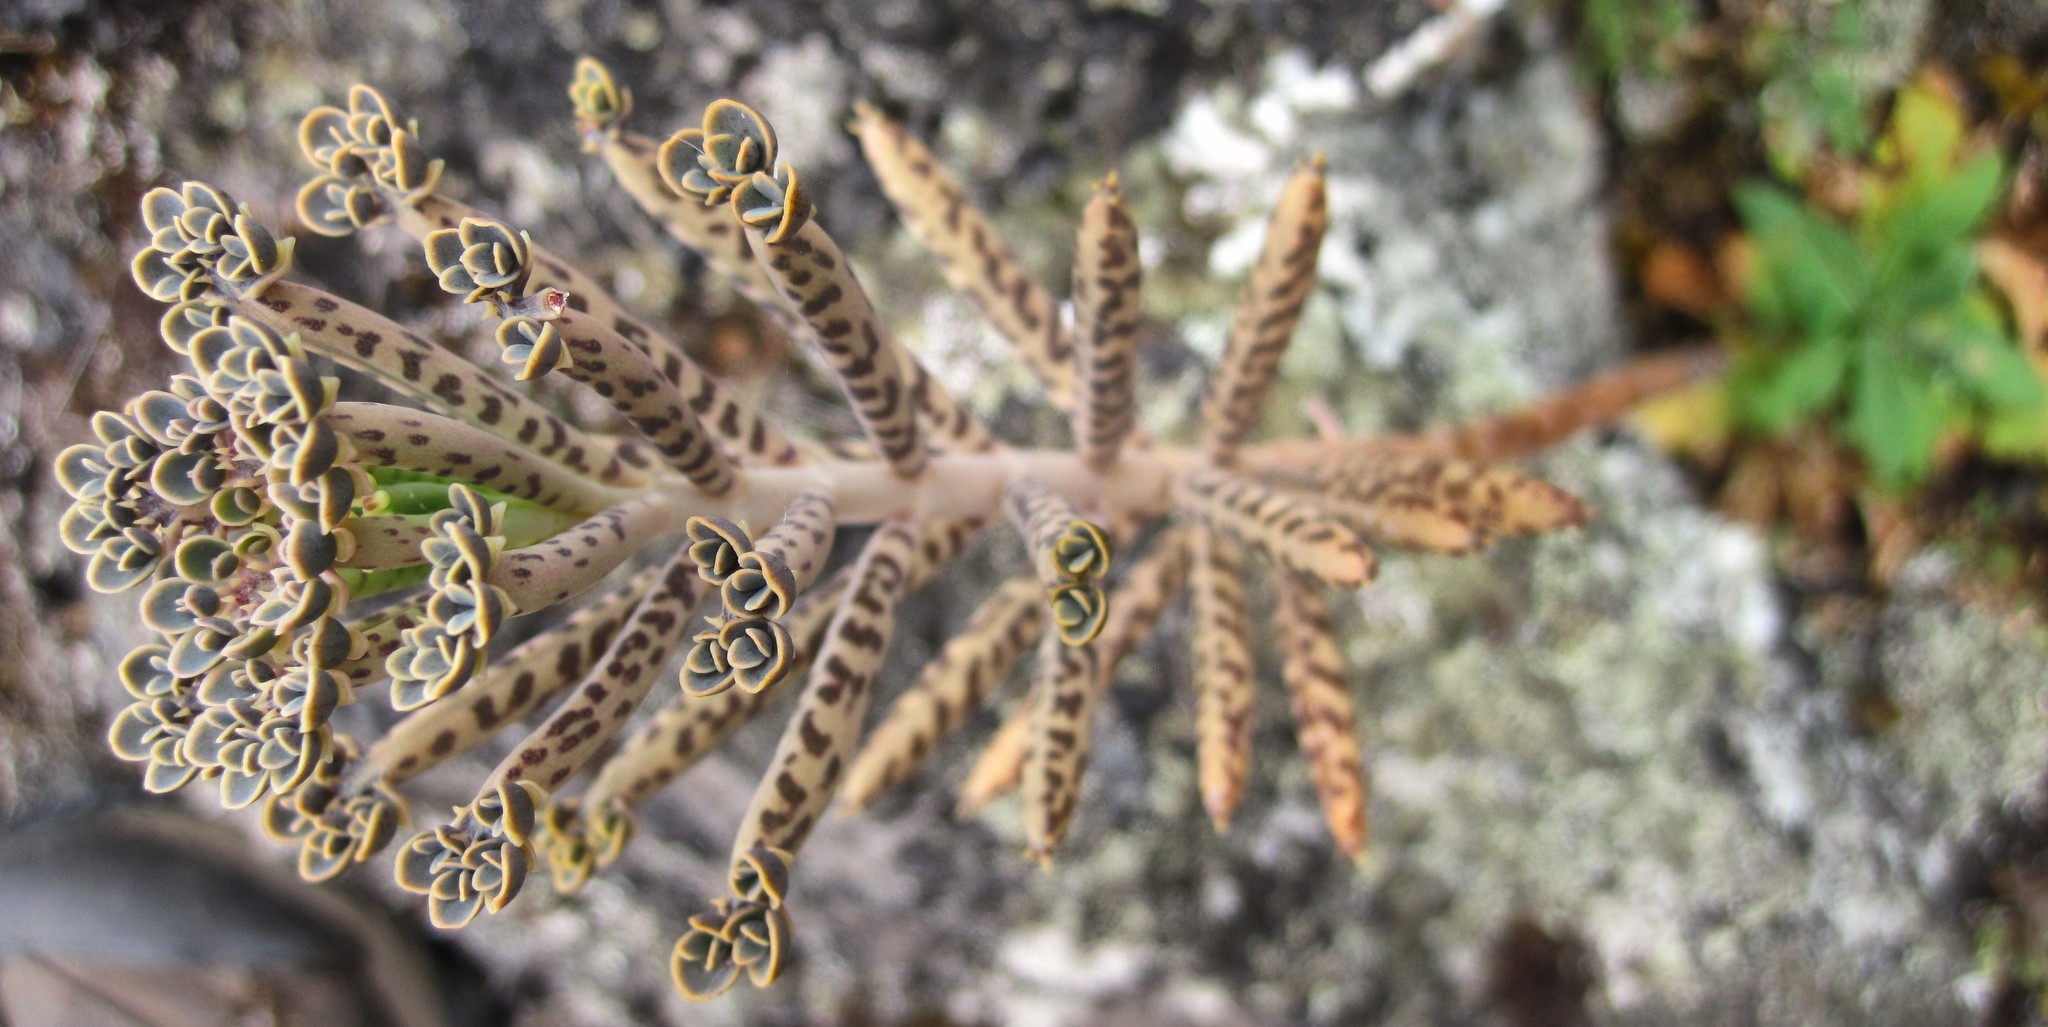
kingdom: Plantae
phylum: Tracheophyta
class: Magnoliopsida
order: Saxifragales
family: Crassulaceae
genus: Kalanchoe
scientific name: Kalanchoe delagoensis
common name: Chandelier plant
